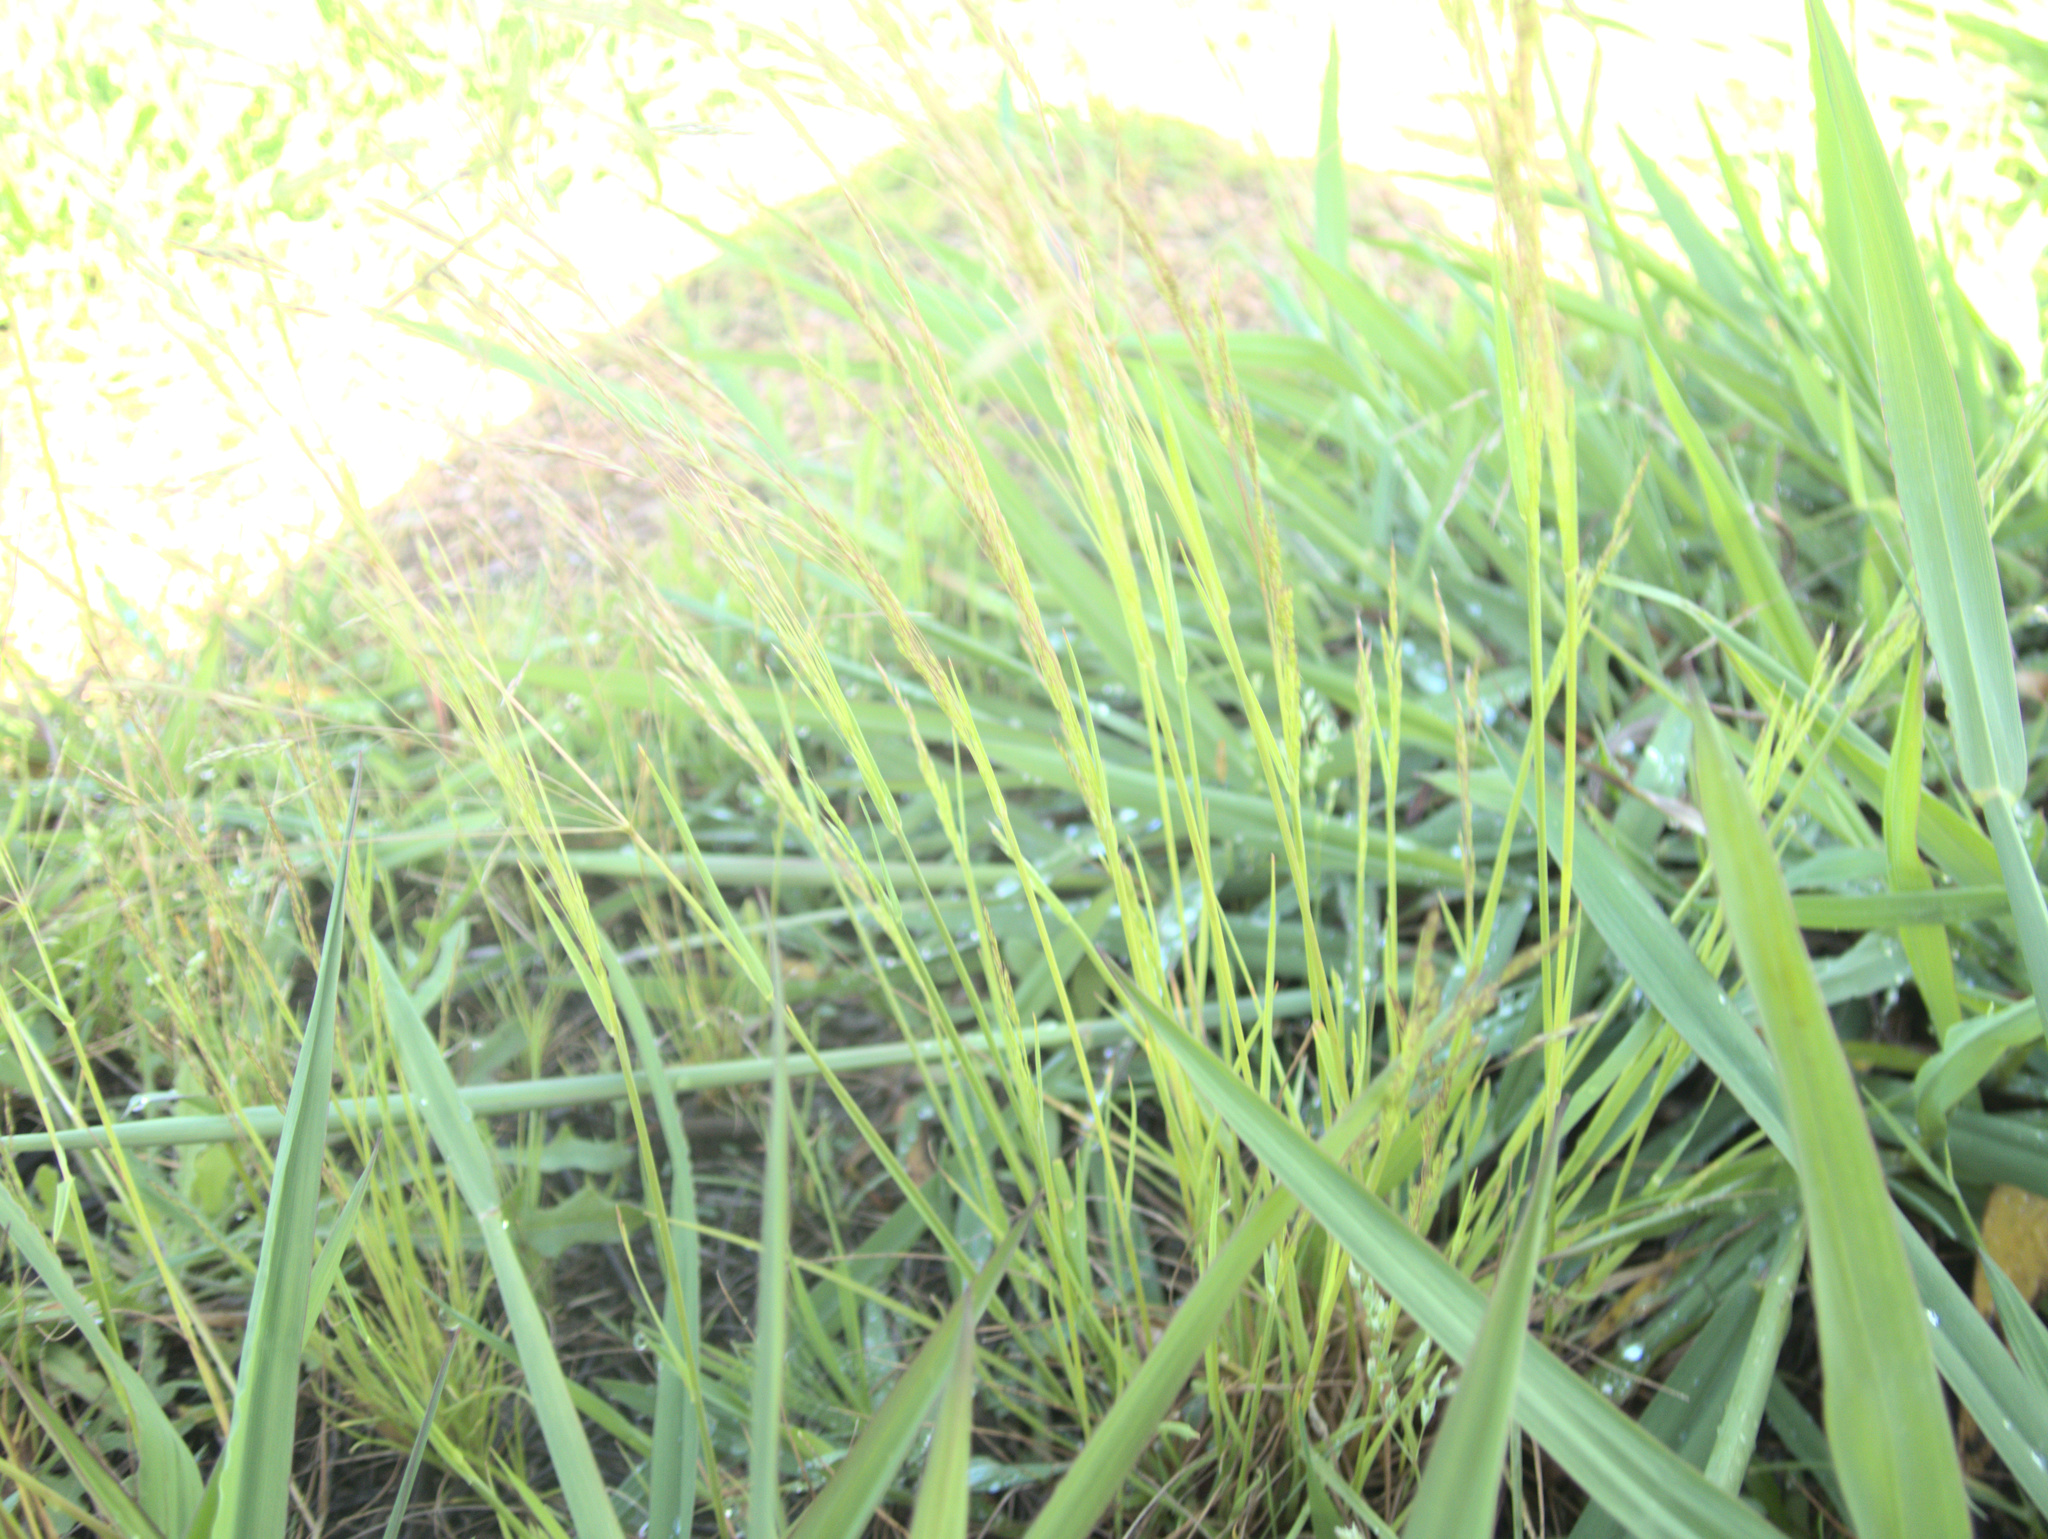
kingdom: Plantae
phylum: Tracheophyta
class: Liliopsida
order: Poales
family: Poaceae
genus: Lachnagrostis
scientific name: Lachnagrostis filiformis
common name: Bentgrass
